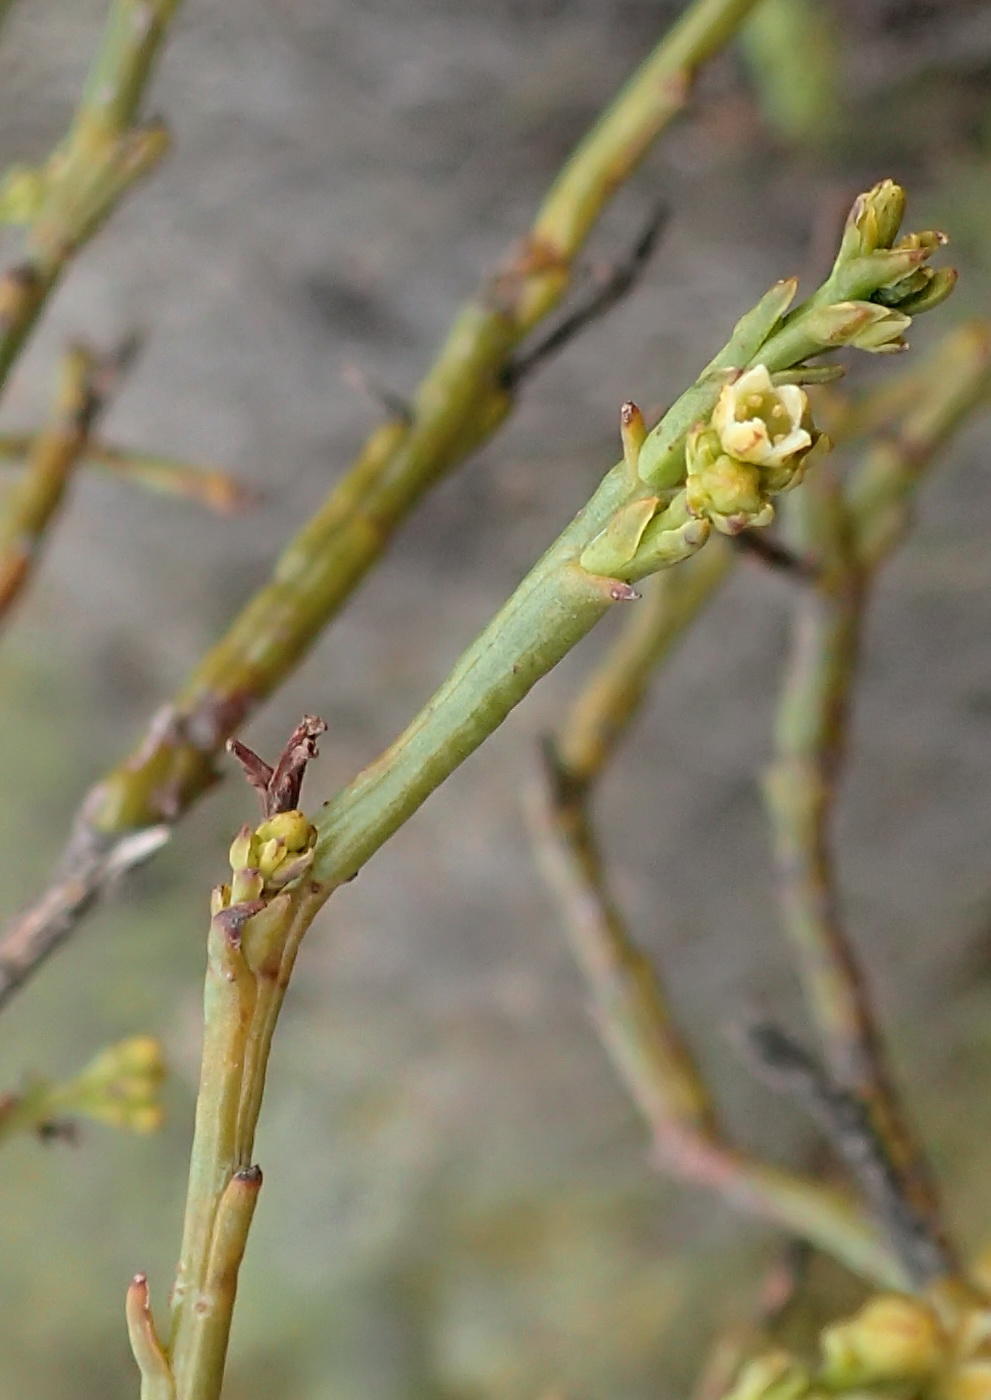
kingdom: Plantae
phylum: Tracheophyta
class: Magnoliopsida
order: Santalales
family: Thesiaceae
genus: Thesium
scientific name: Thesium strictum
